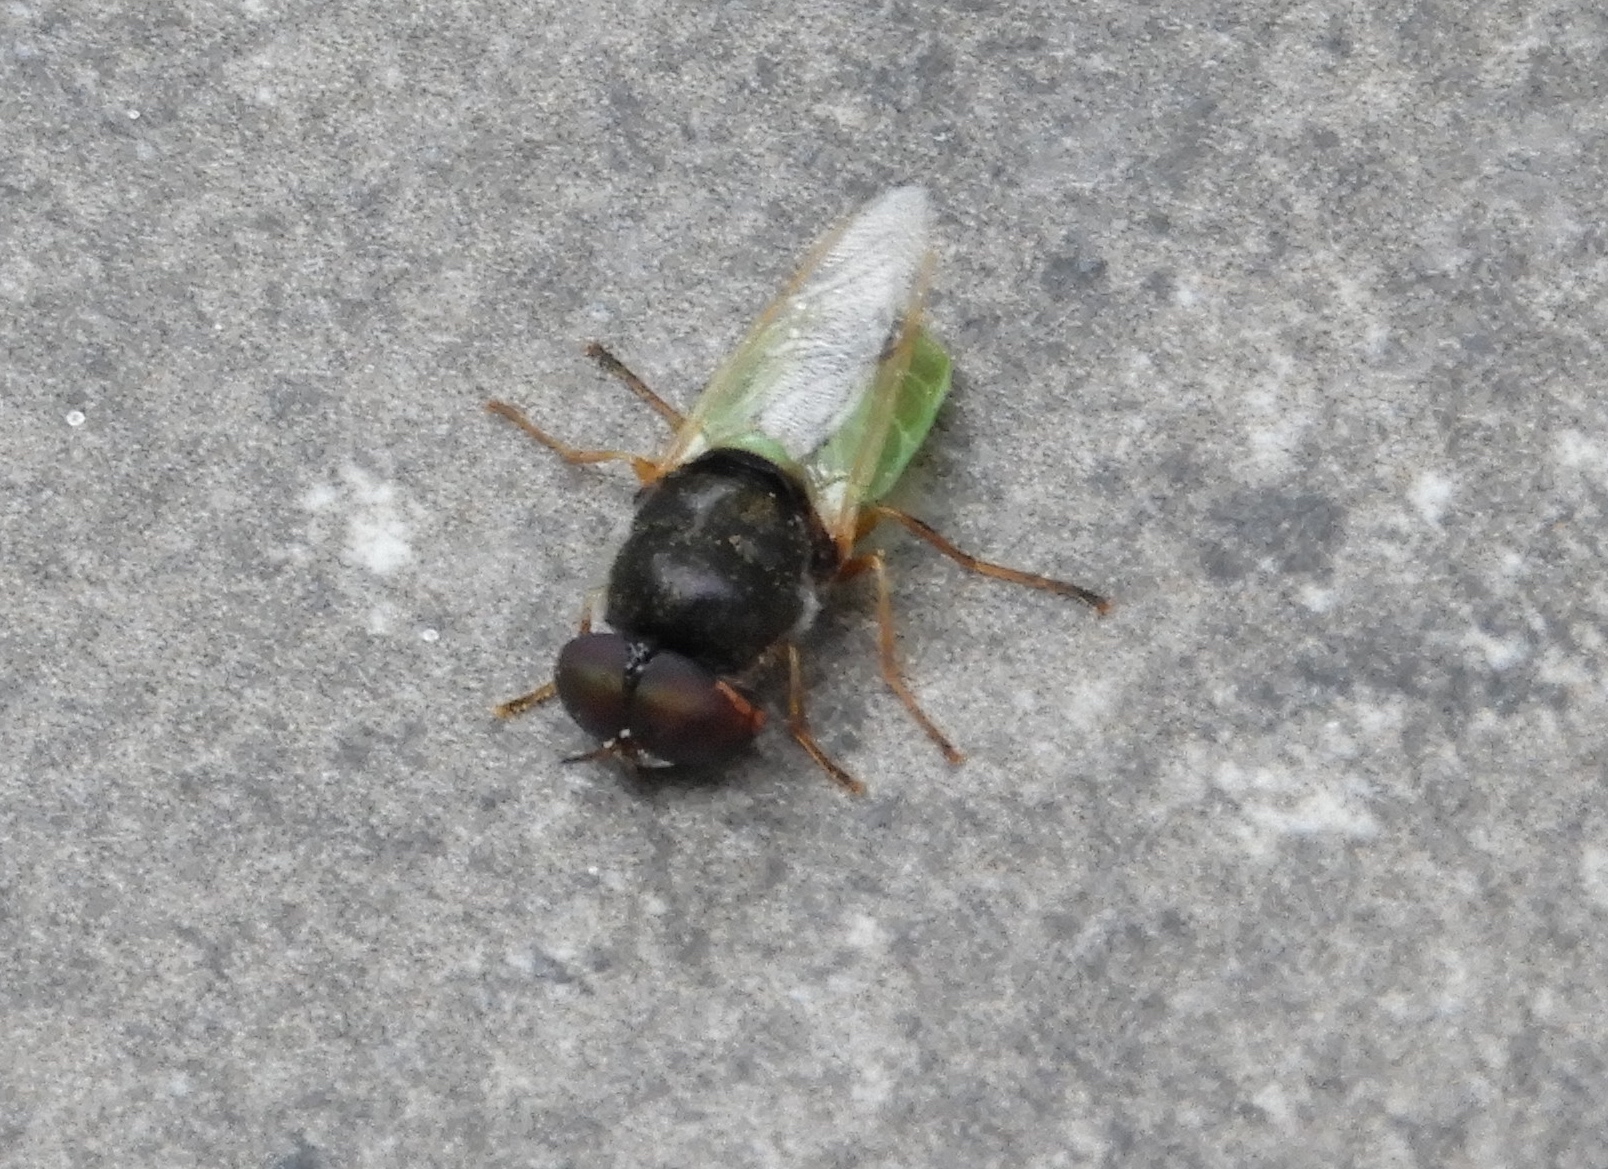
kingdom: Animalia
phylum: Arthropoda
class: Insecta
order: Diptera
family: Stratiomyidae
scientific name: Stratiomyidae
